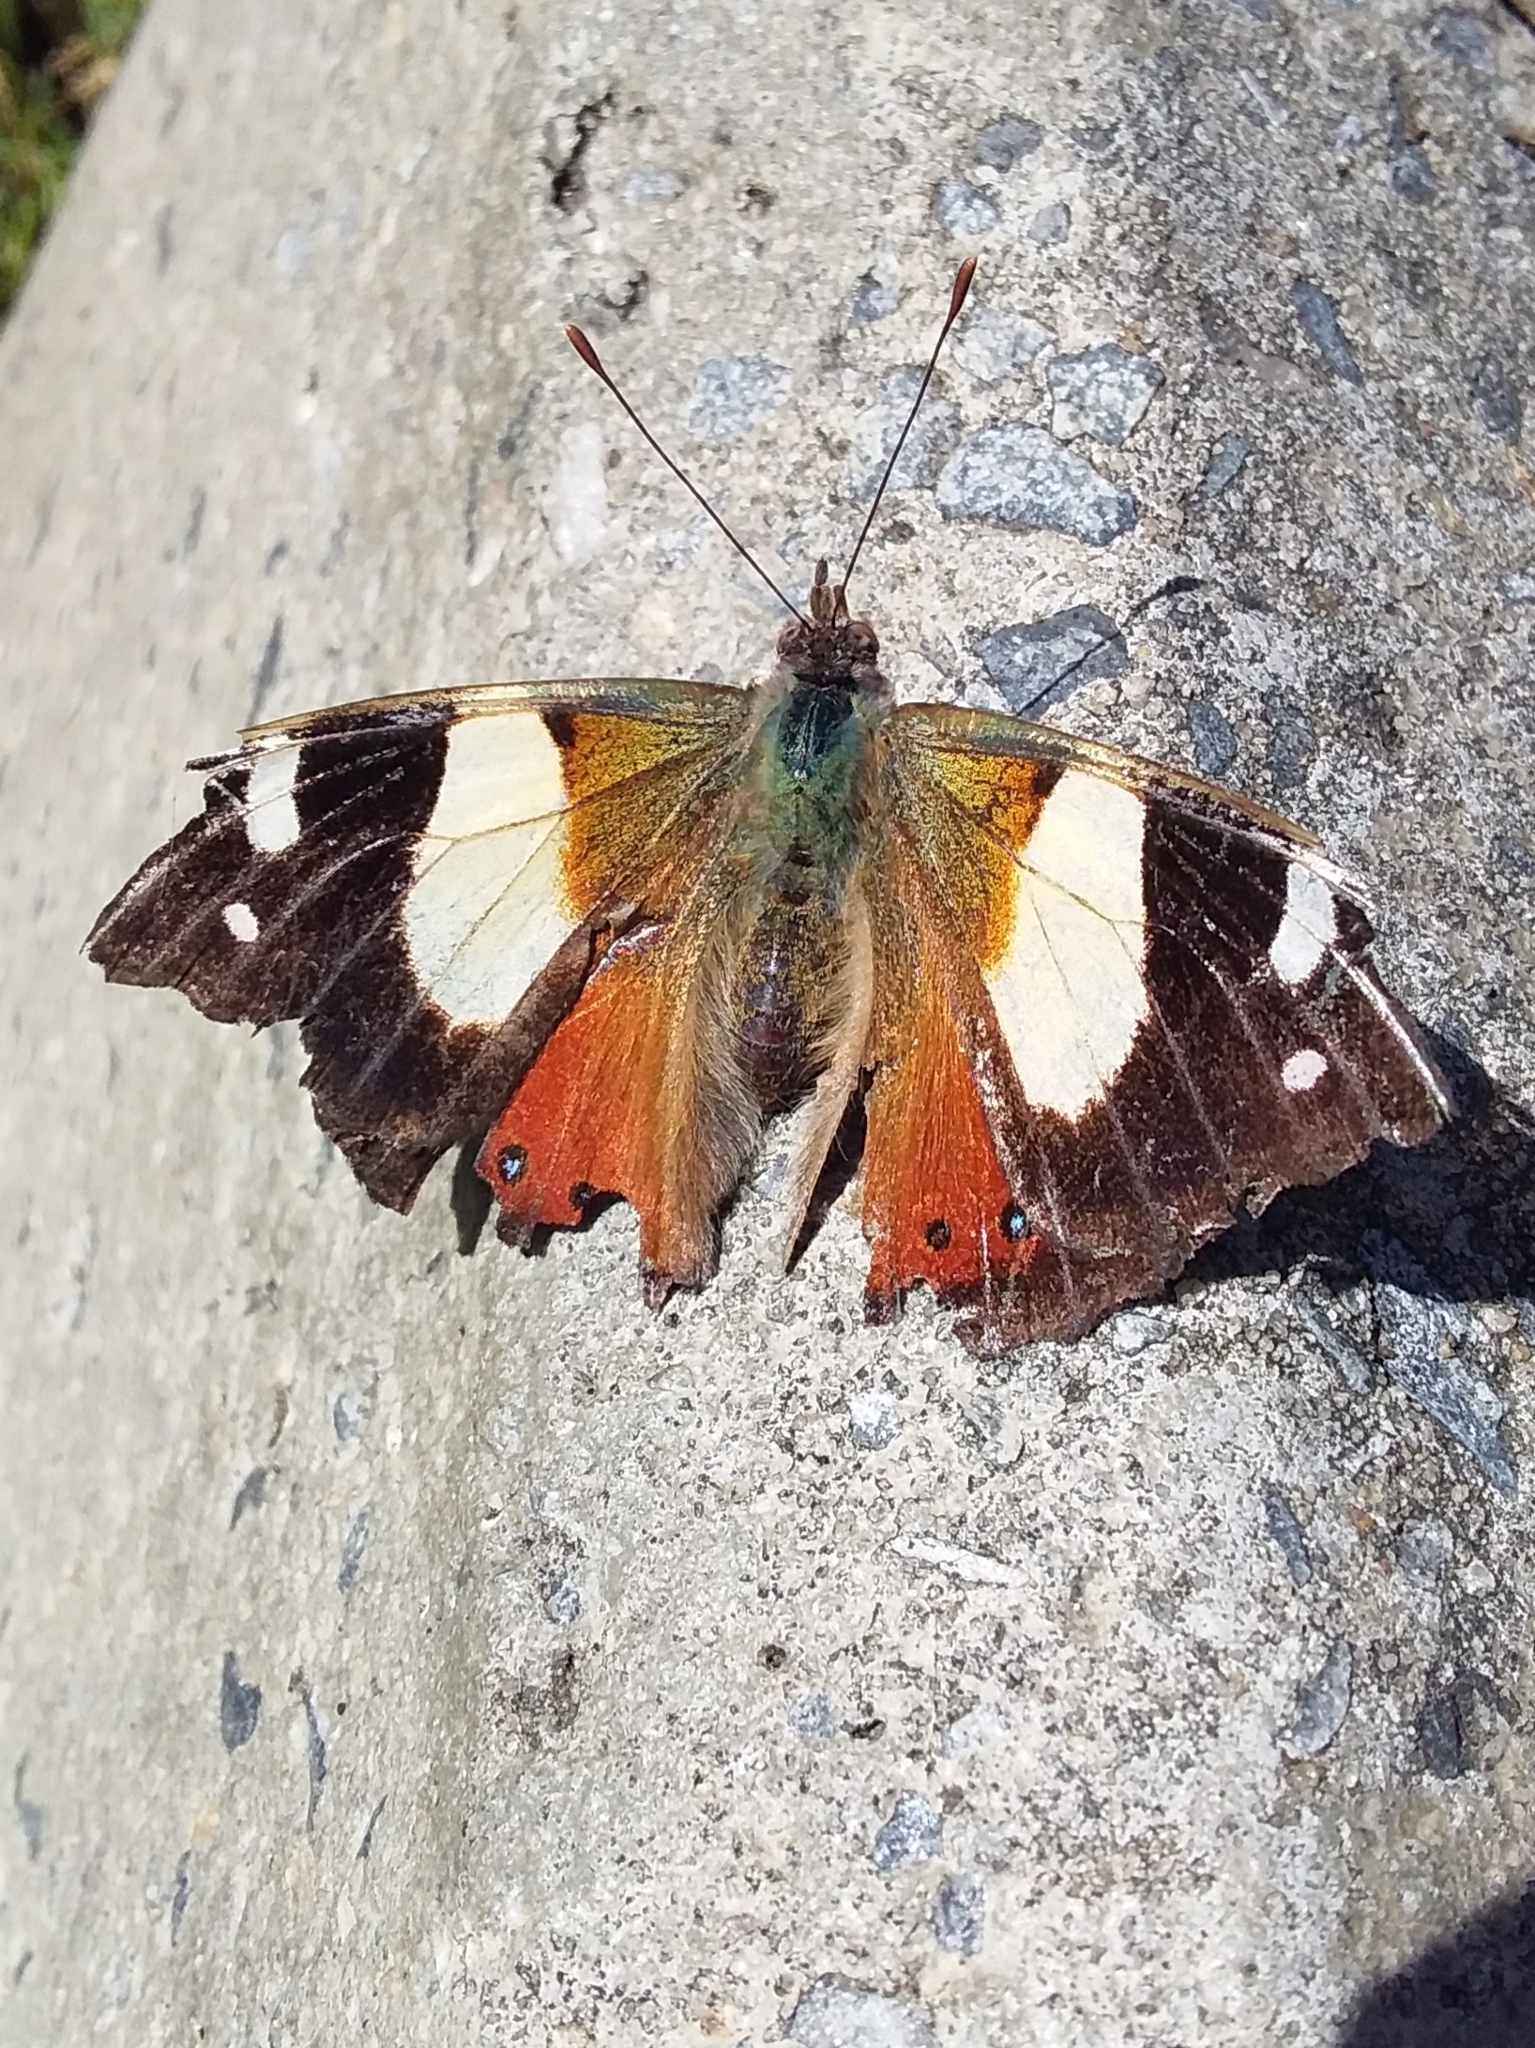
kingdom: Animalia
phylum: Arthropoda
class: Insecta
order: Lepidoptera
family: Nymphalidae
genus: Vanessa
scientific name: Vanessa itea
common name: Yellow admiral
